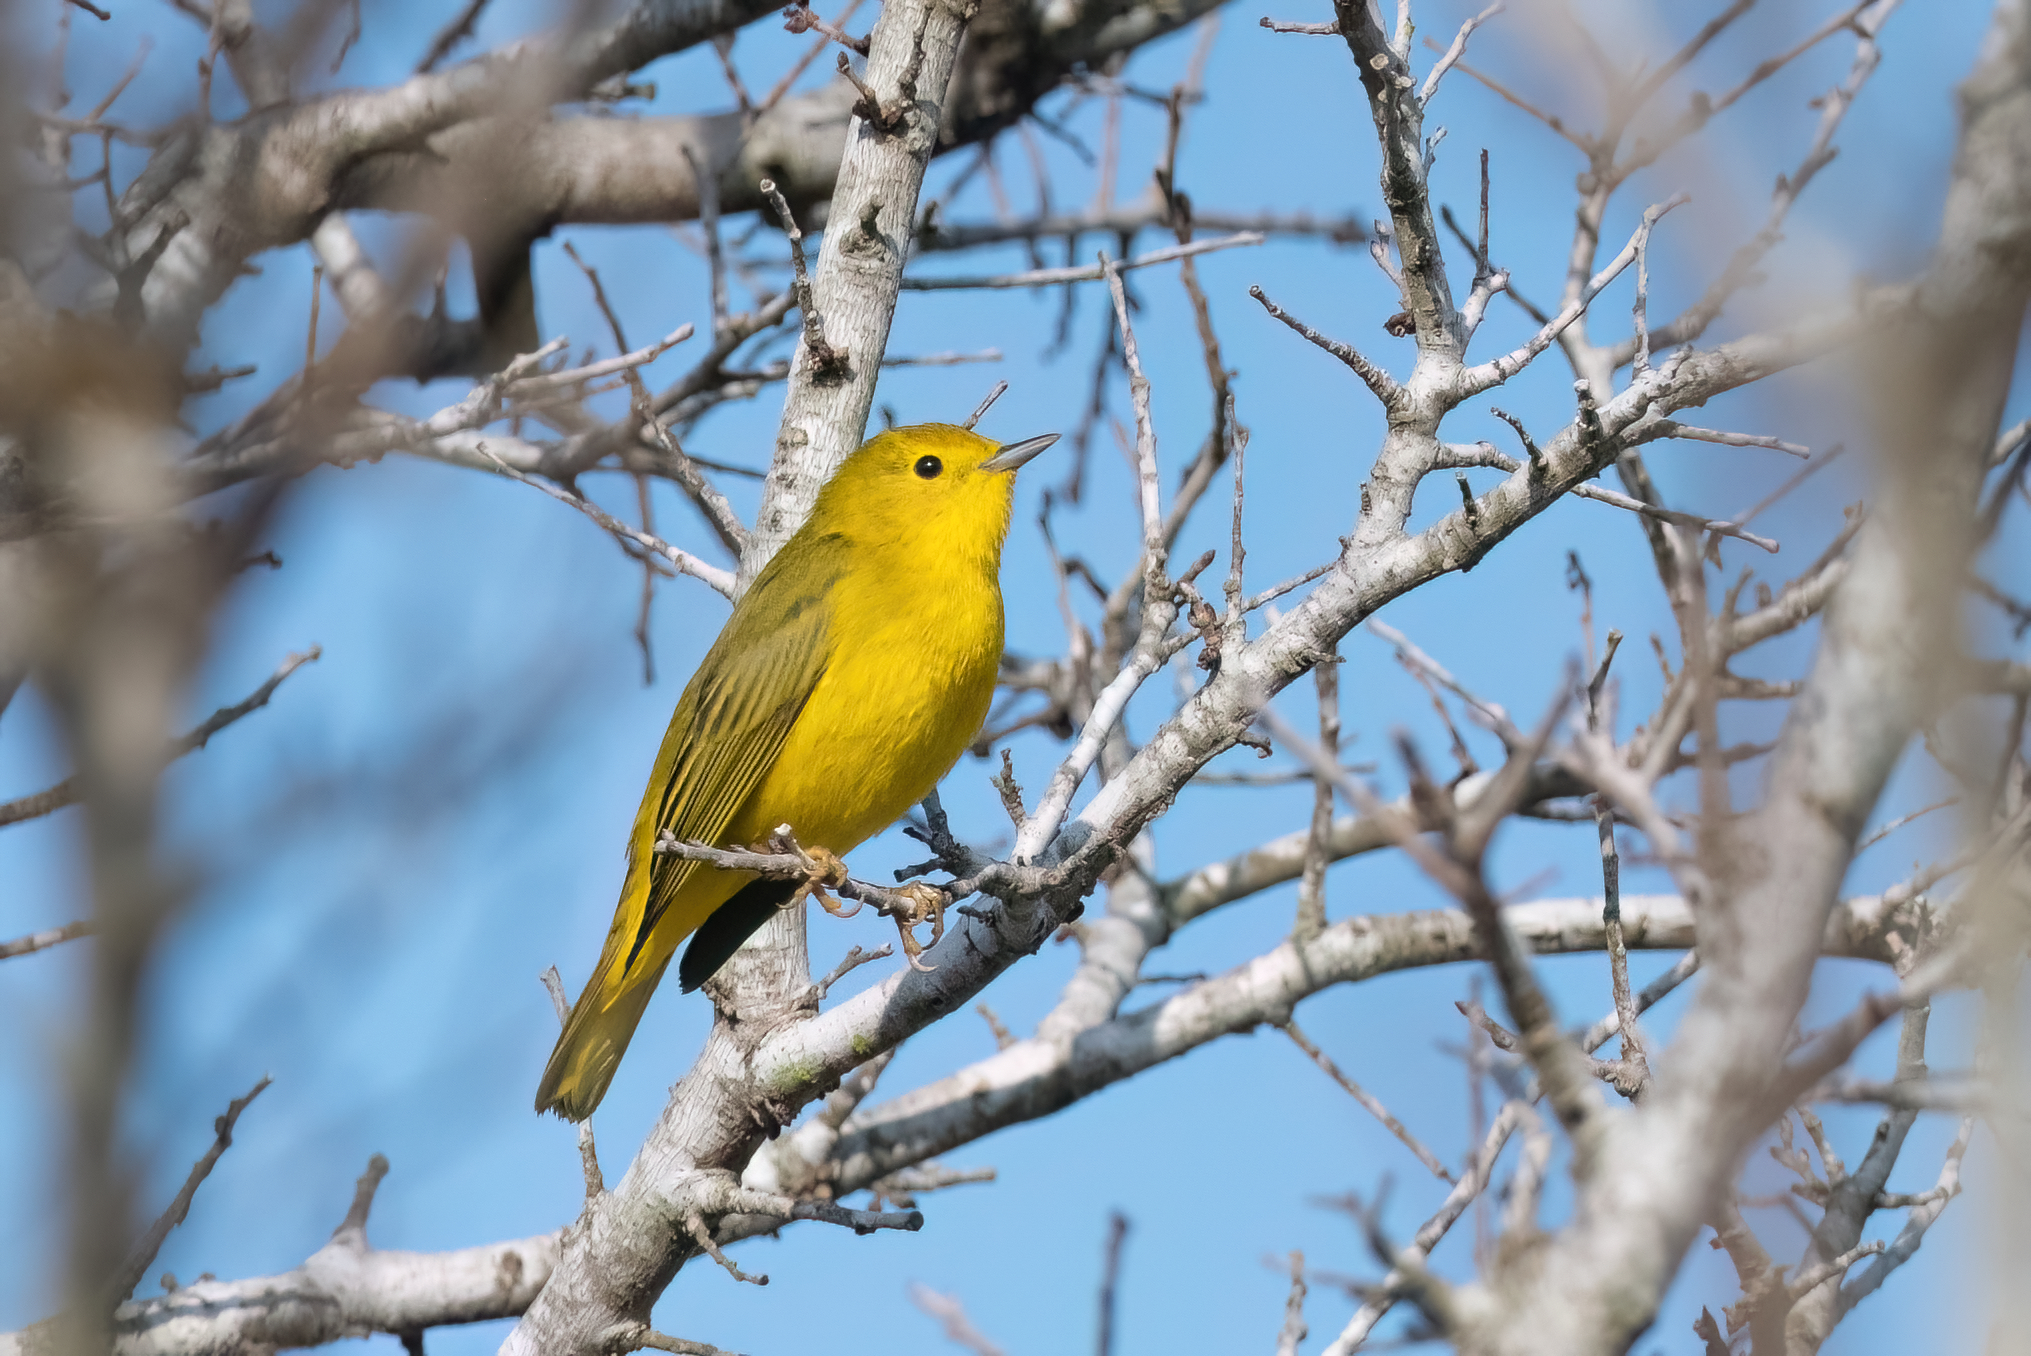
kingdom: Animalia
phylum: Chordata
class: Aves
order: Passeriformes
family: Parulidae
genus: Setophaga
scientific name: Setophaga petechia
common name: Yellow warbler
